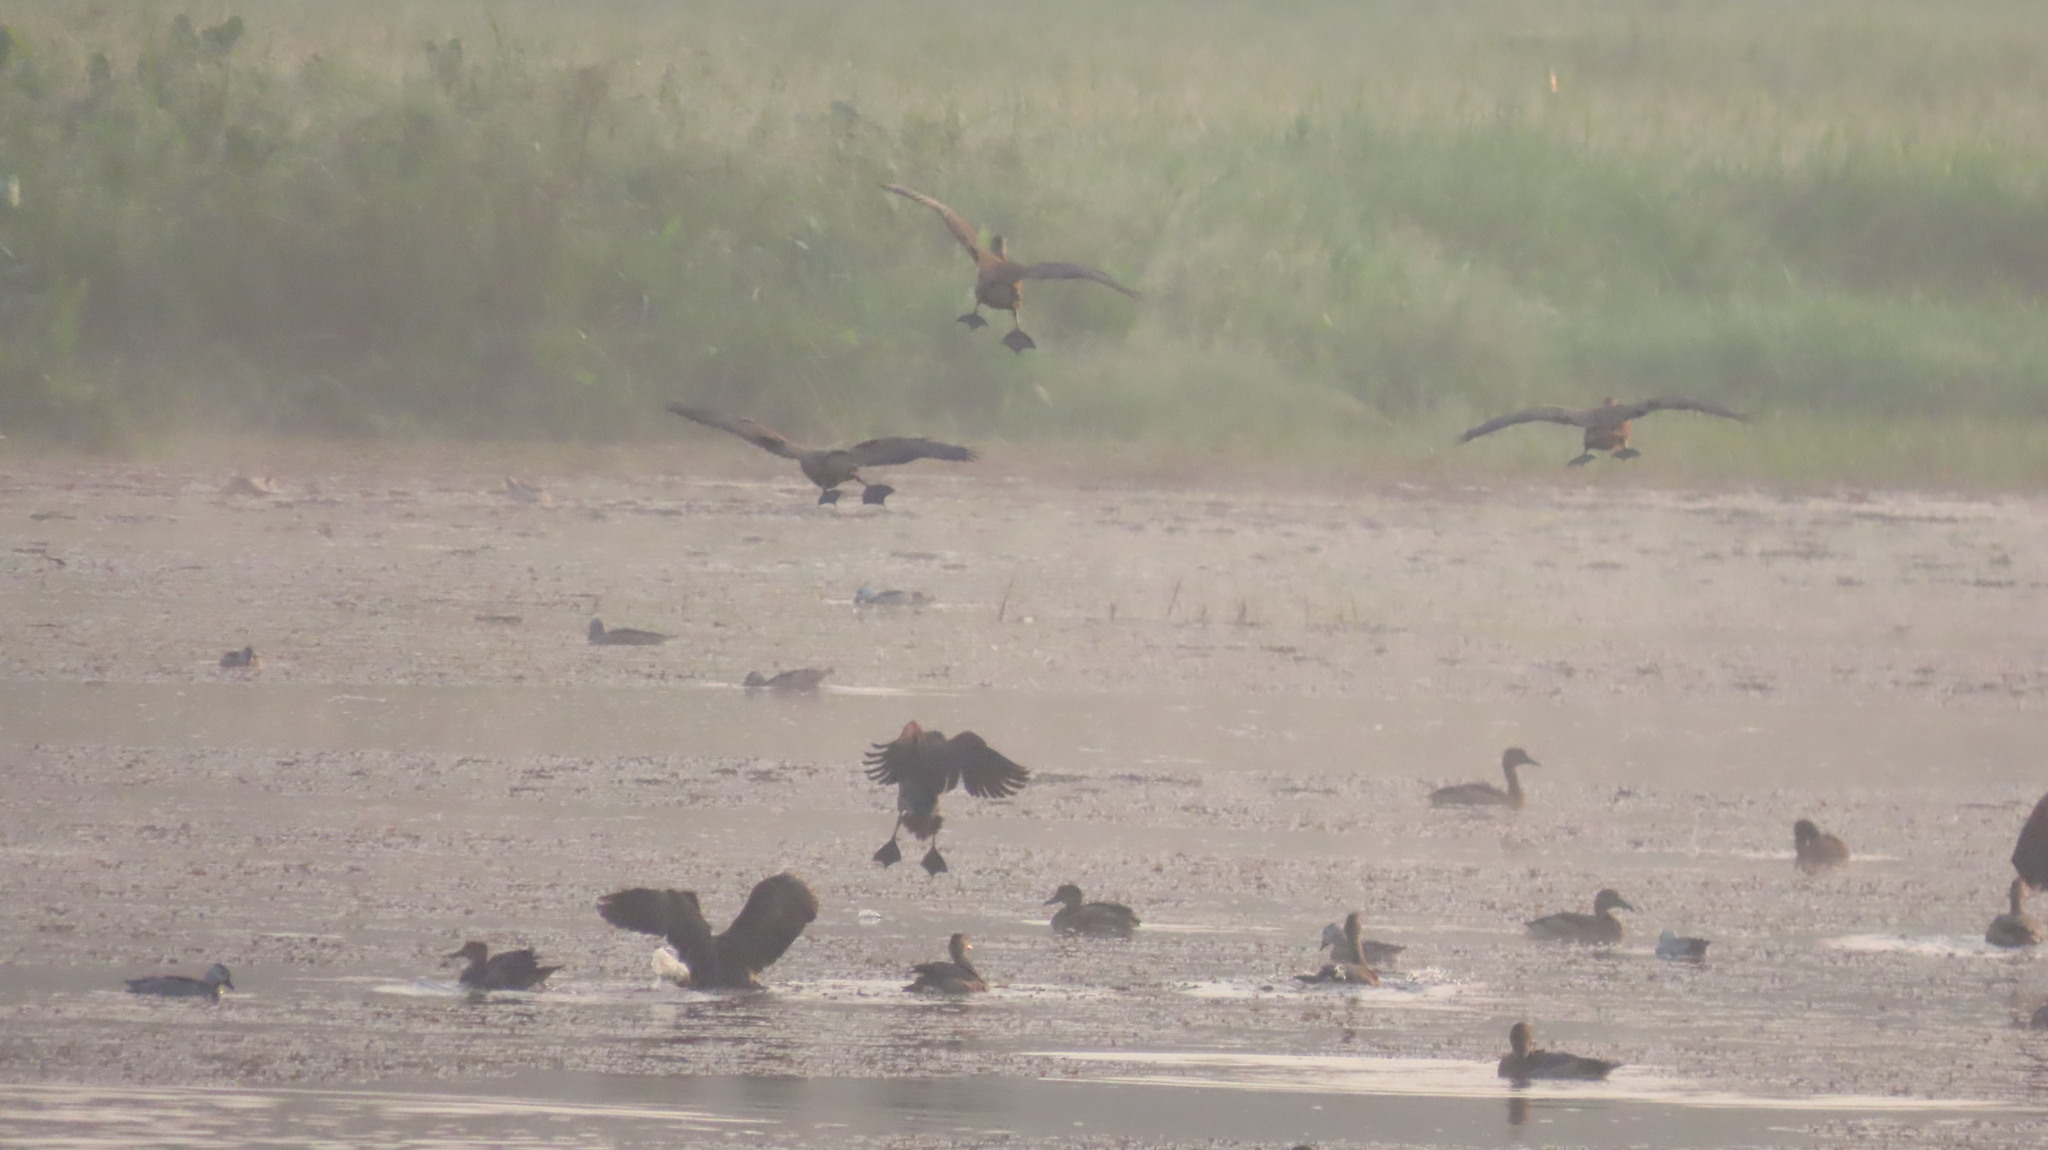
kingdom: Animalia
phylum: Chordata
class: Aves
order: Anseriformes
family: Anatidae
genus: Dendrocygna
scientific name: Dendrocygna javanica
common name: Lesser whistling-duck
